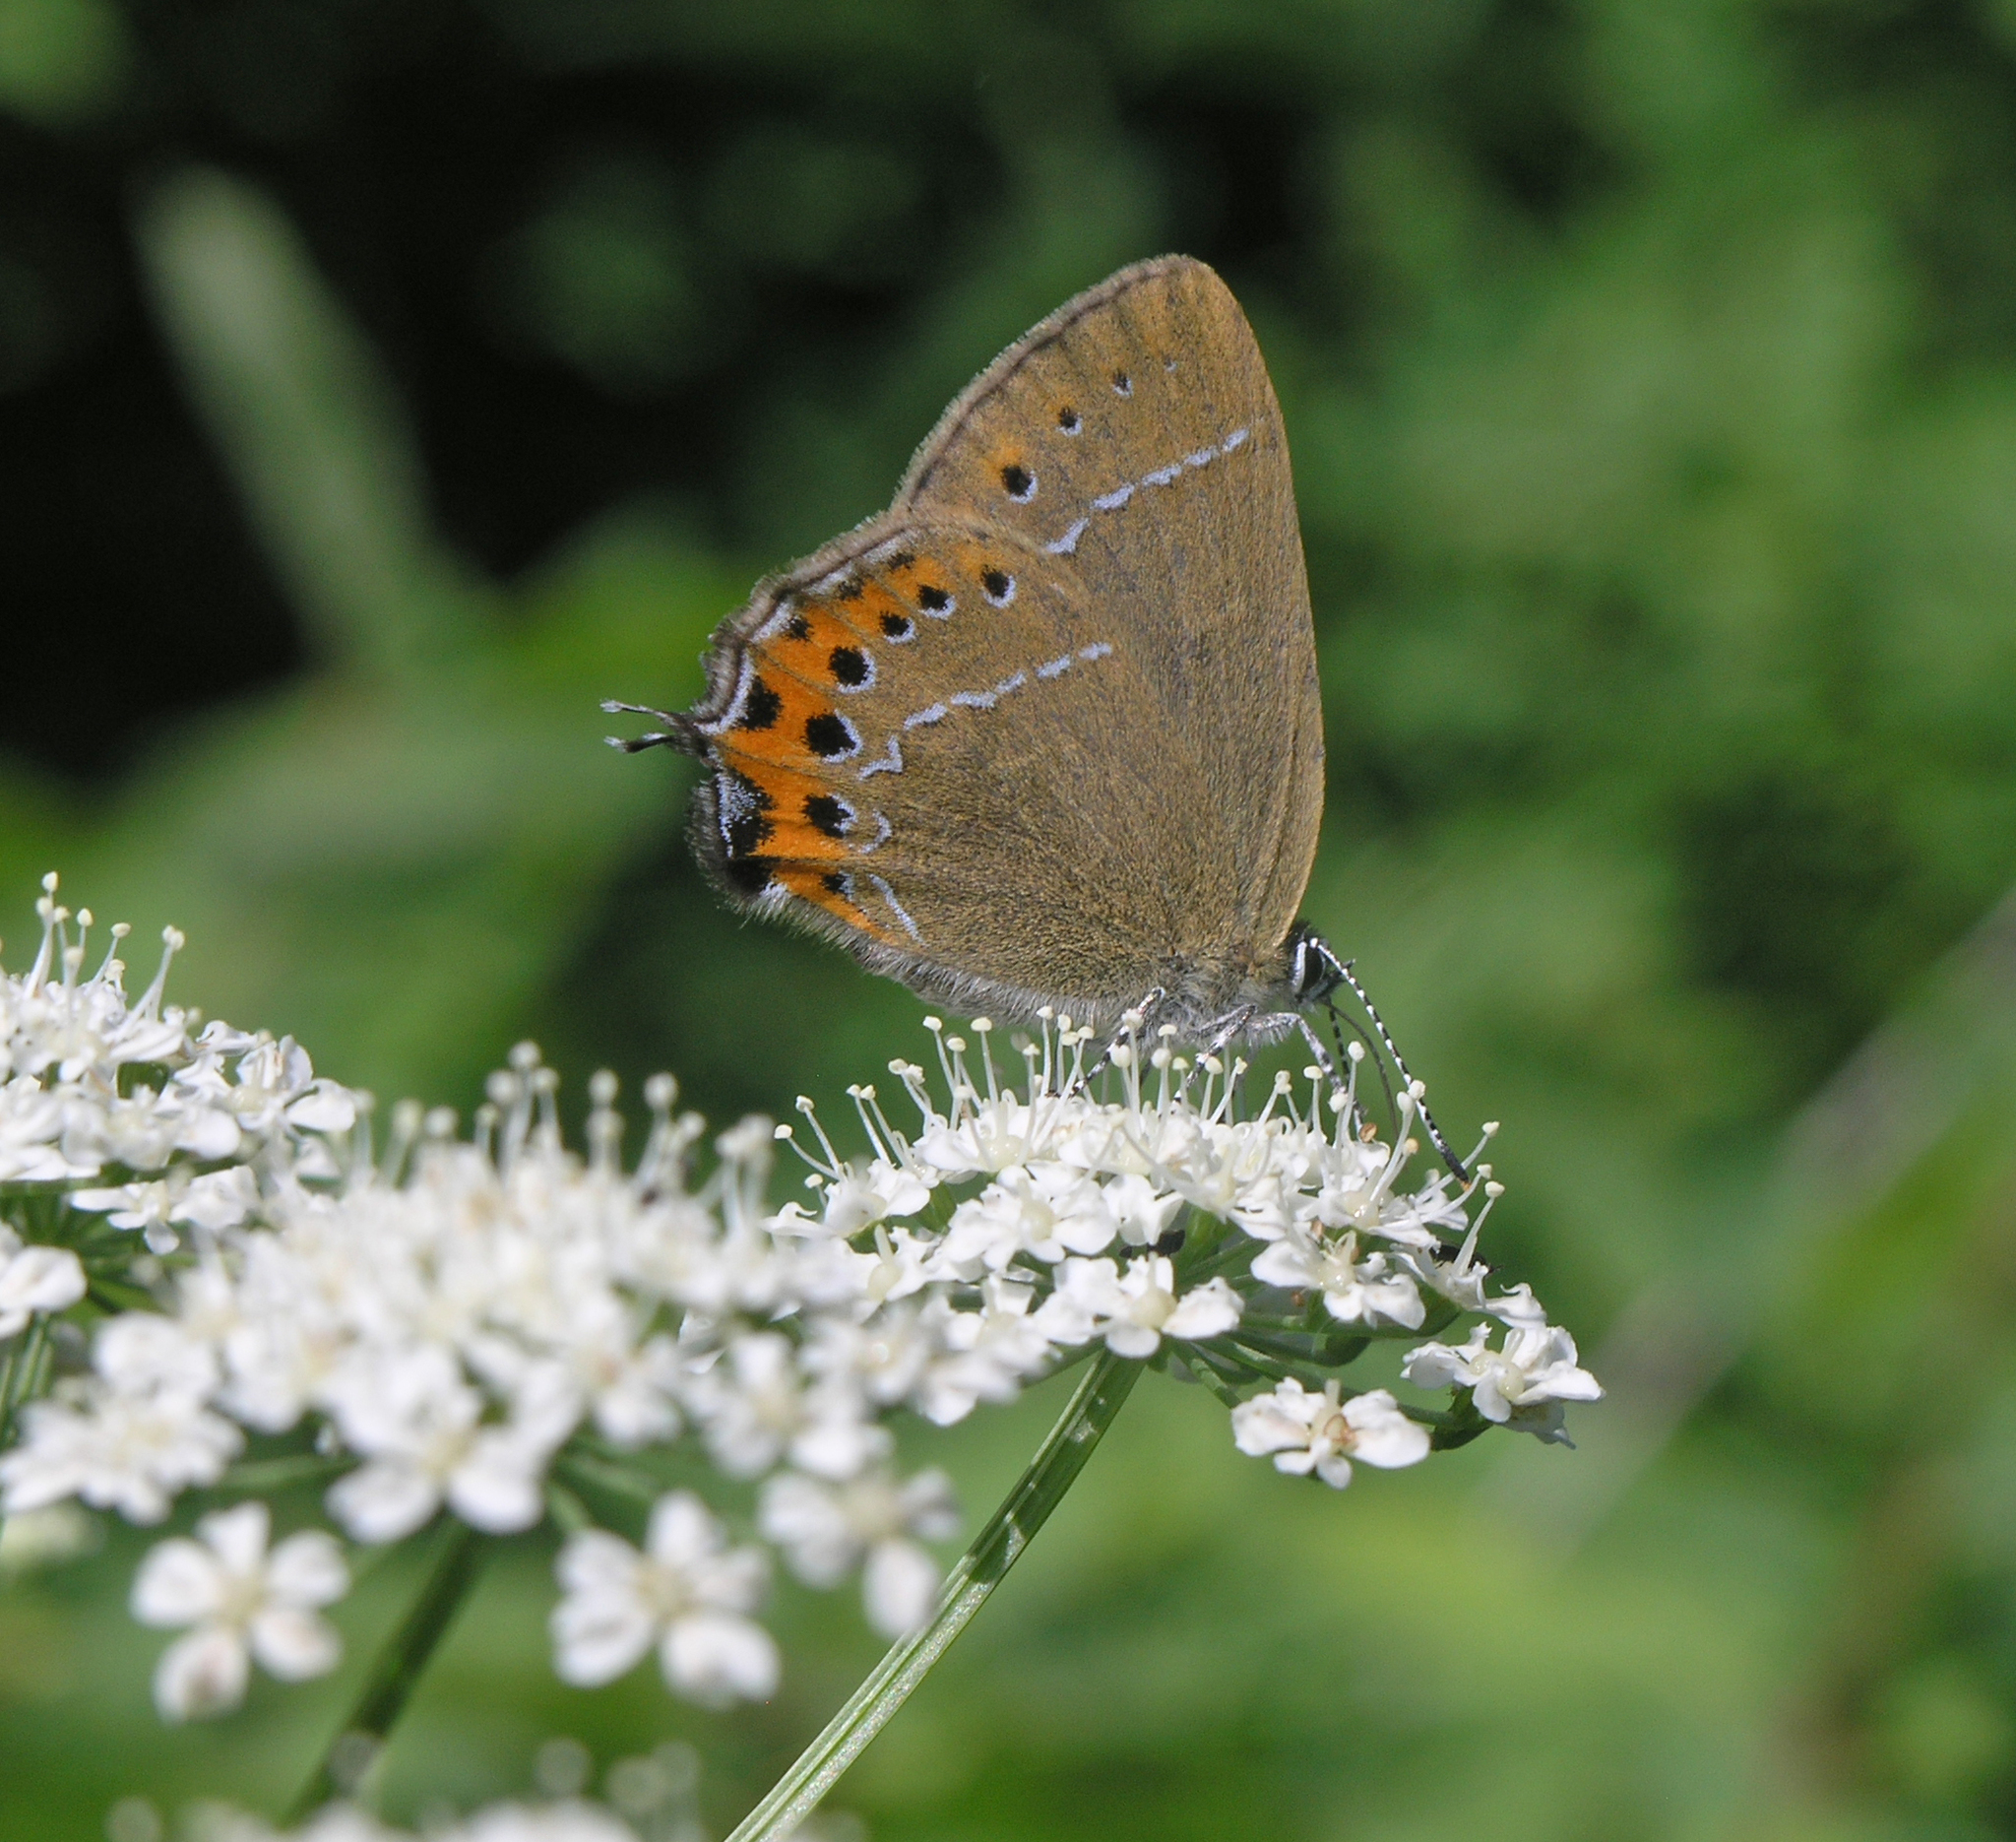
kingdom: Animalia
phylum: Arthropoda
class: Insecta
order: Lepidoptera
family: Lycaenidae
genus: Fixsenia
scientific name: Fixsenia pruni
